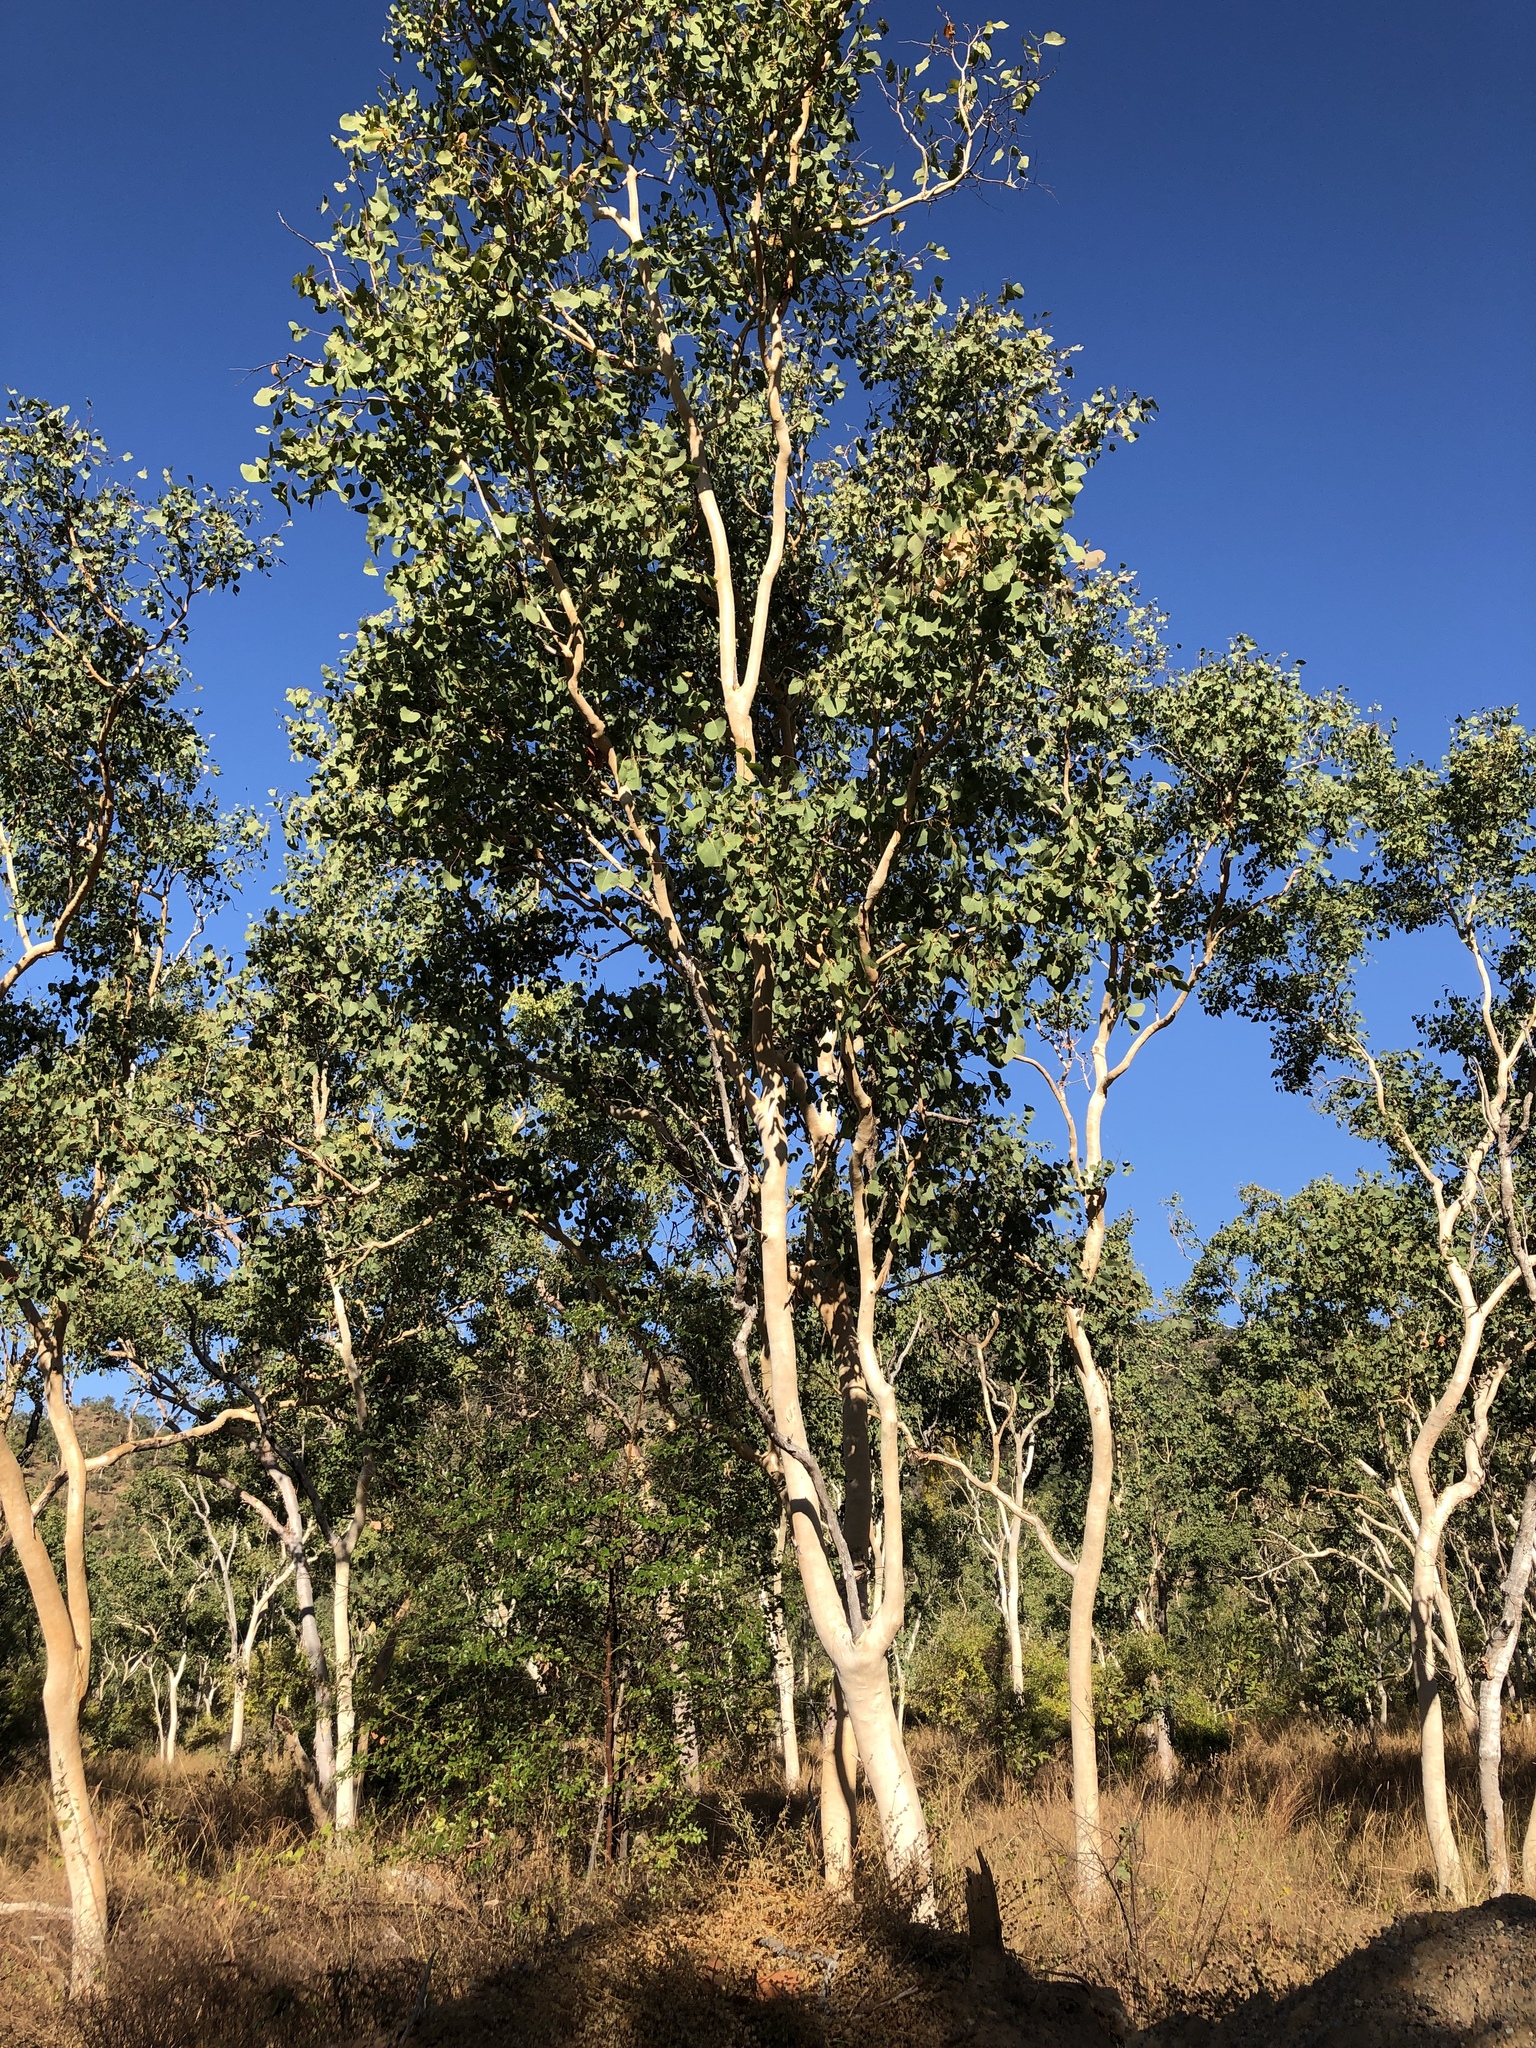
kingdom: Plantae
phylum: Tracheophyta
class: Magnoliopsida
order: Myrtales
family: Myrtaceae
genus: Eucalyptus
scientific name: Eucalyptus platyphylla
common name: Poplar-gum
